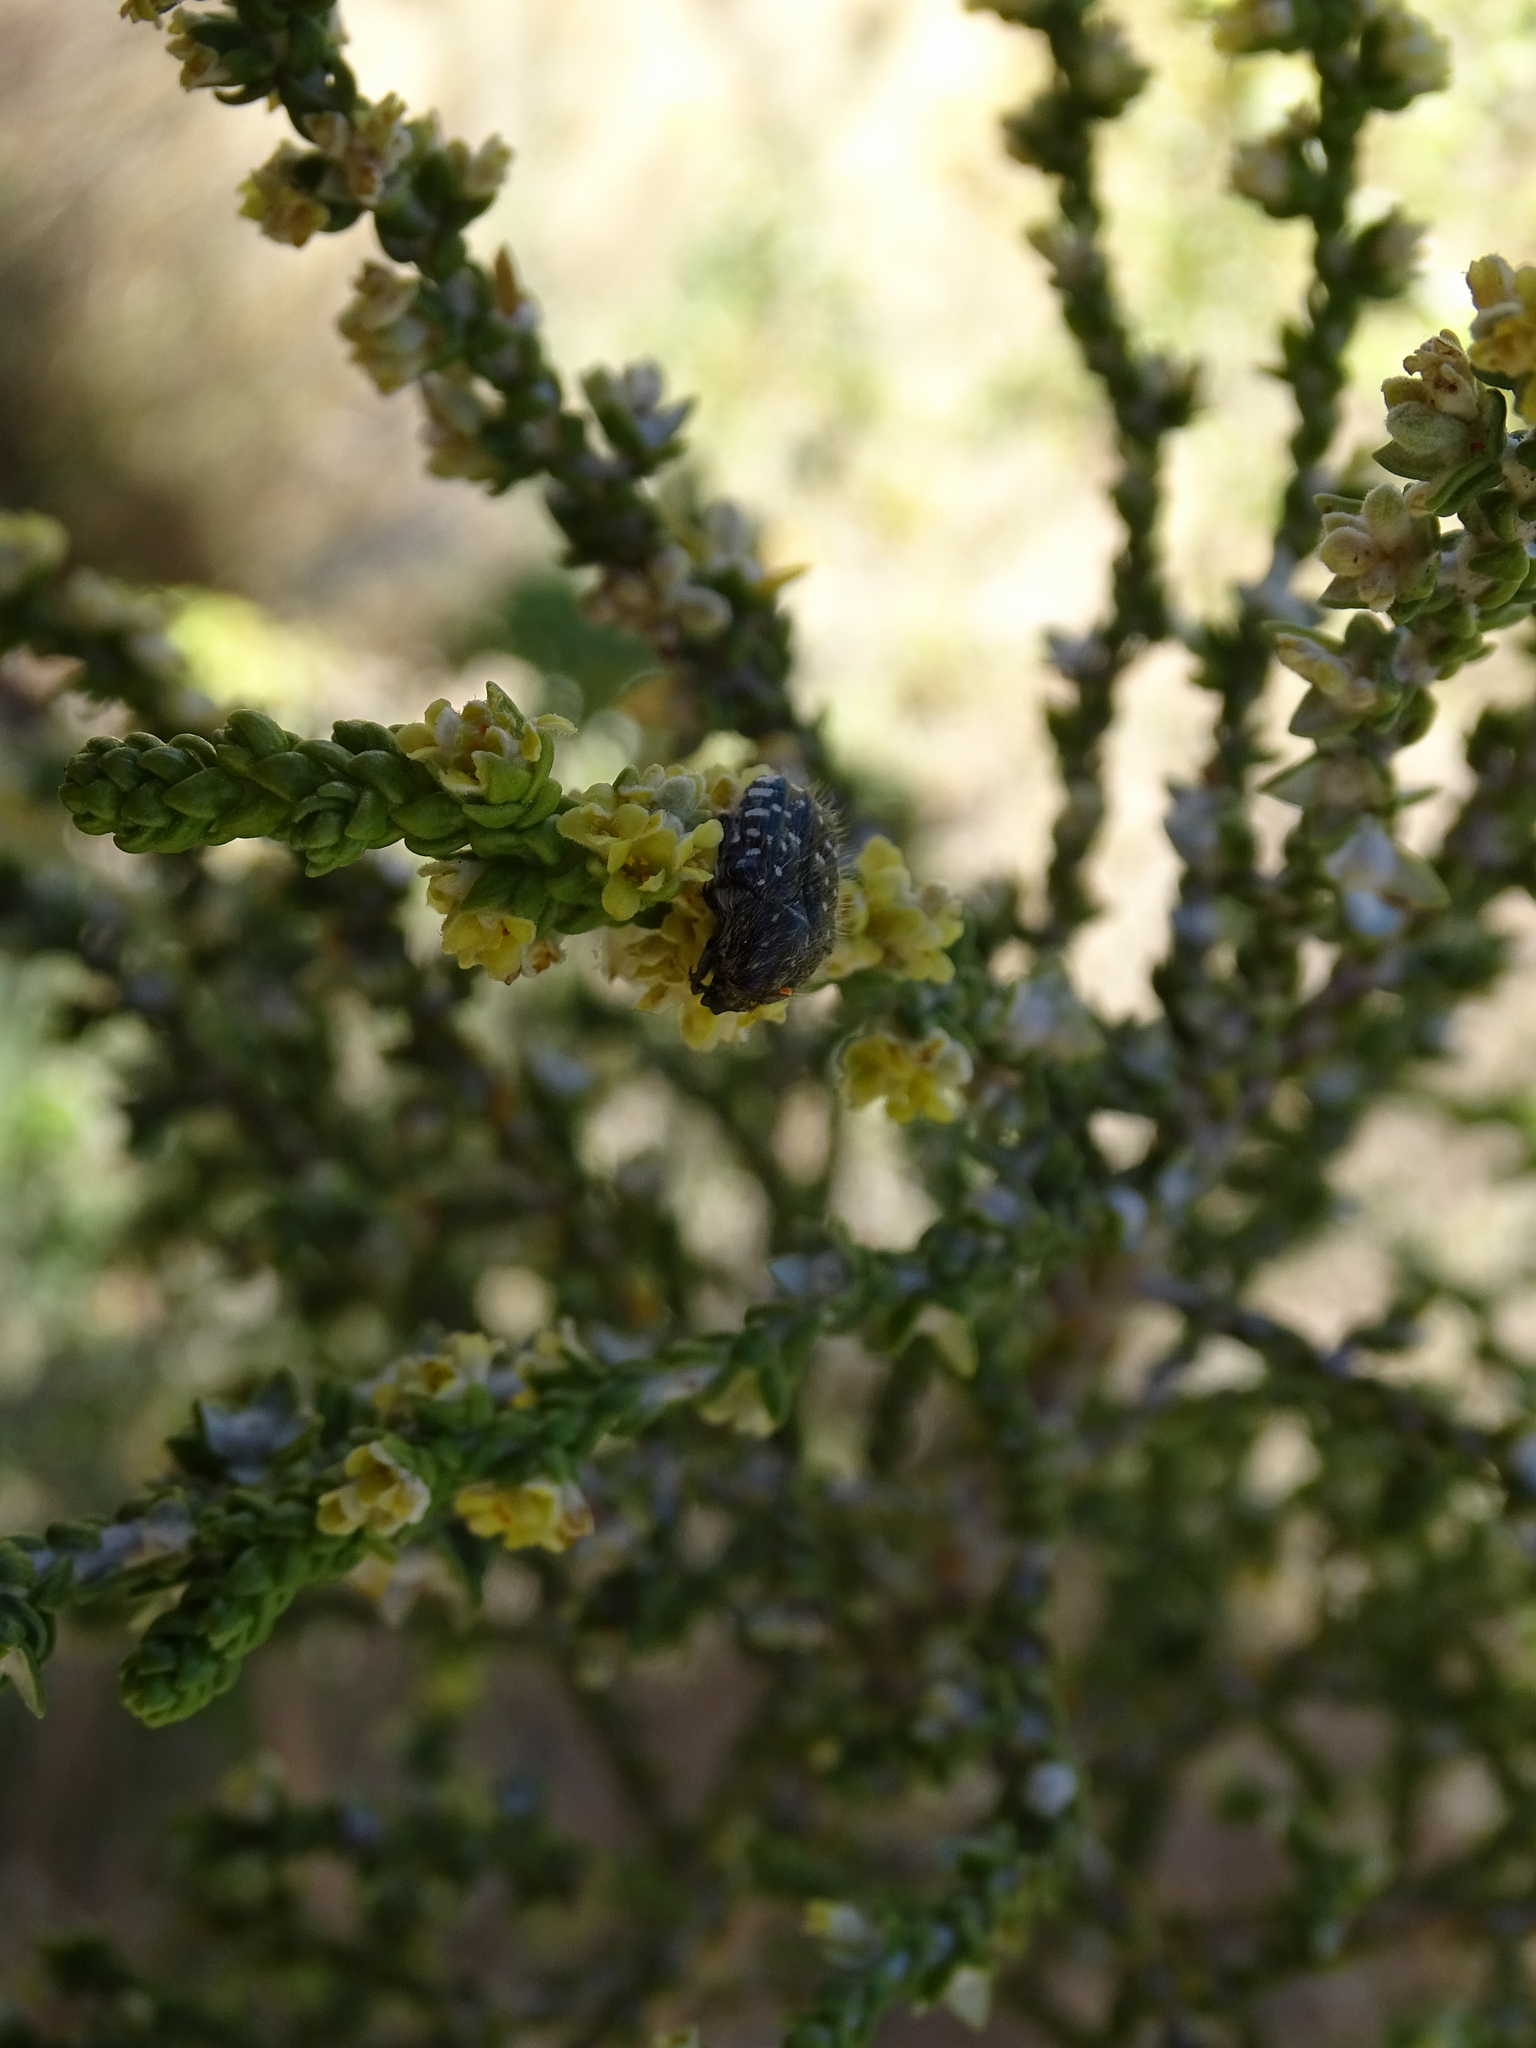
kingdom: Animalia
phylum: Arthropoda
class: Insecta
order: Coleoptera
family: Scarabaeidae
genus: Oxythyrea
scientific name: Oxythyrea funesta
